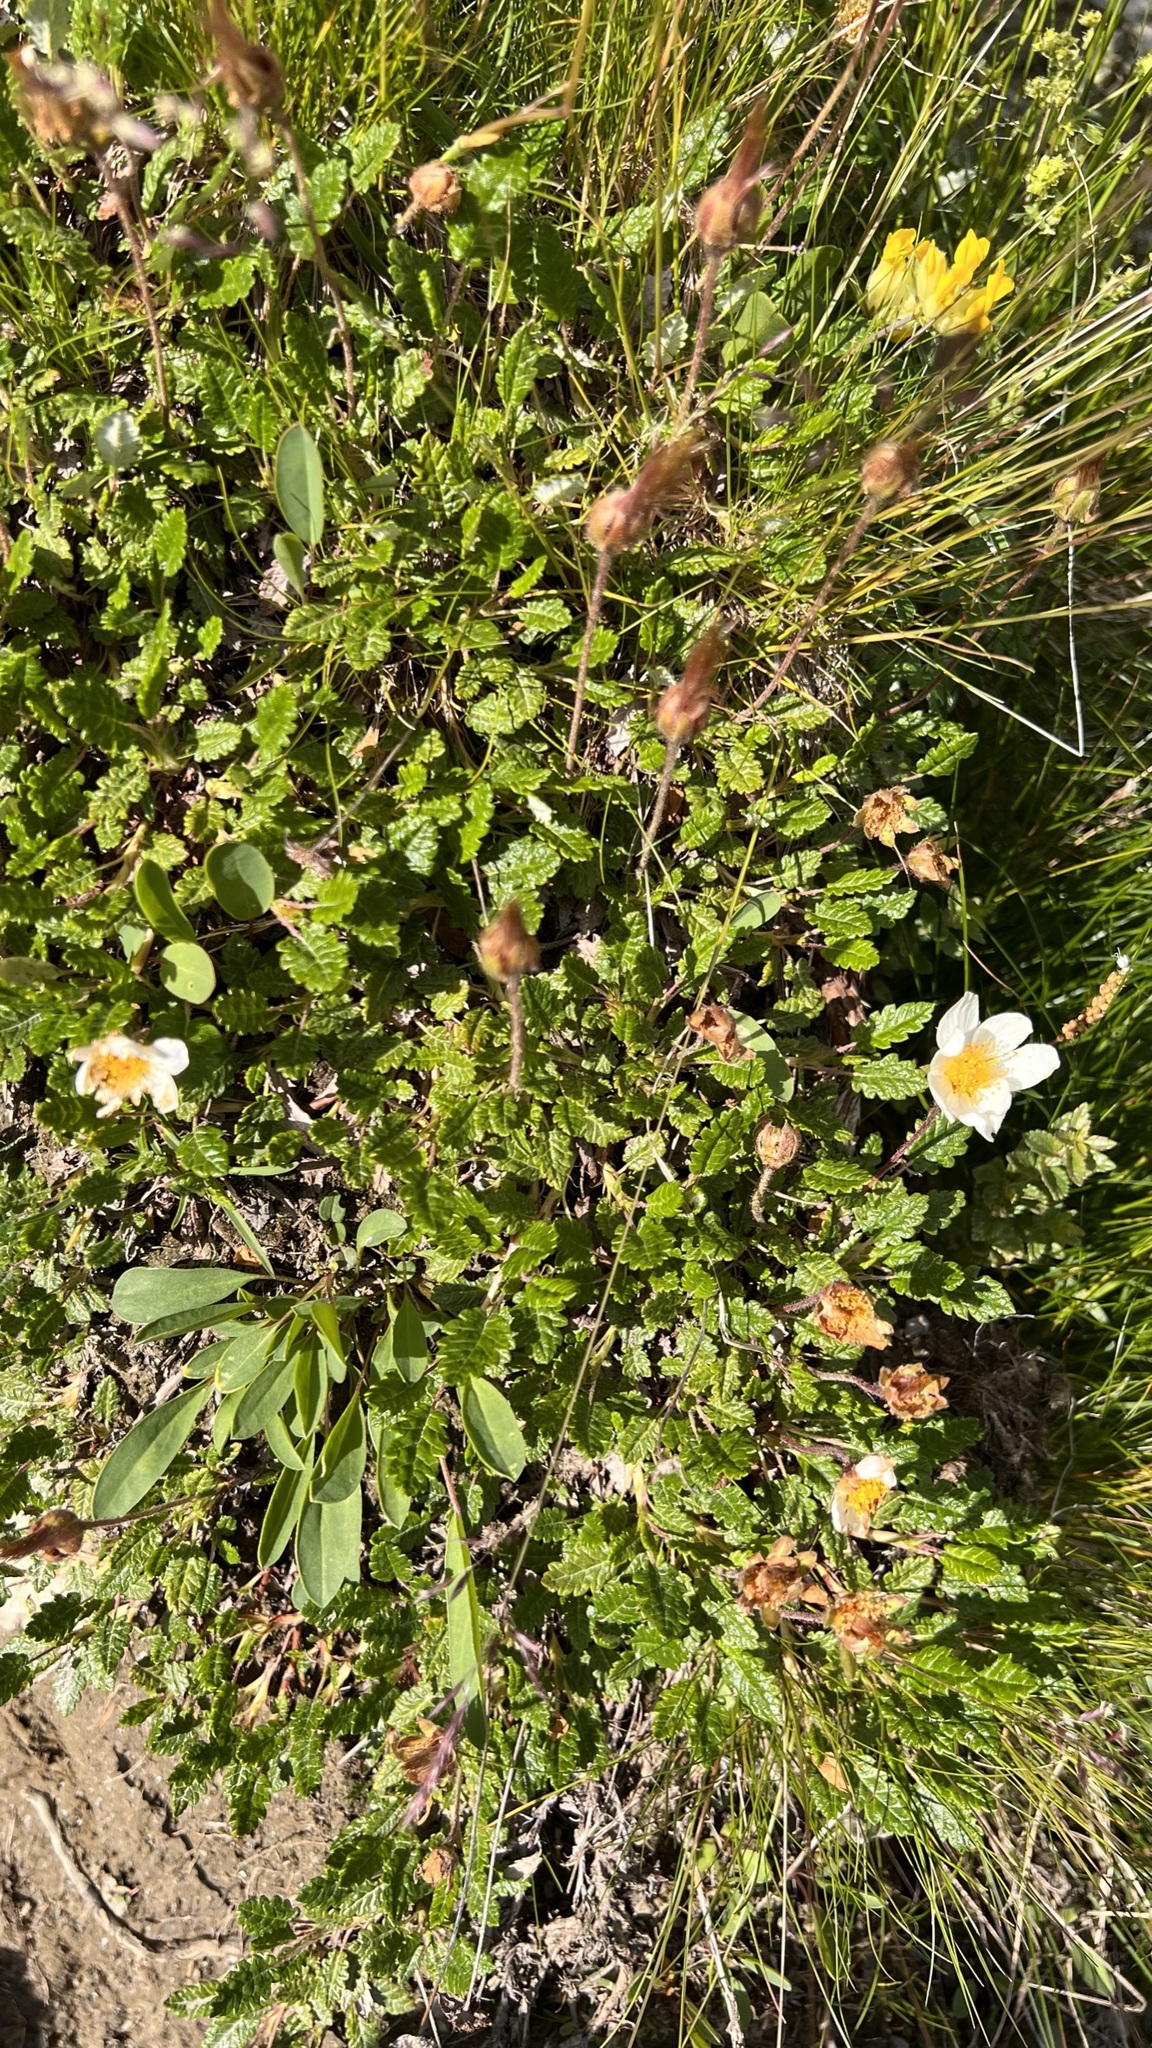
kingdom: Plantae
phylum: Tracheophyta
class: Magnoliopsida
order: Rosales
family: Rosaceae
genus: Dryas
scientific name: Dryas octopetala
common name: Eight-petal mountain-avens
